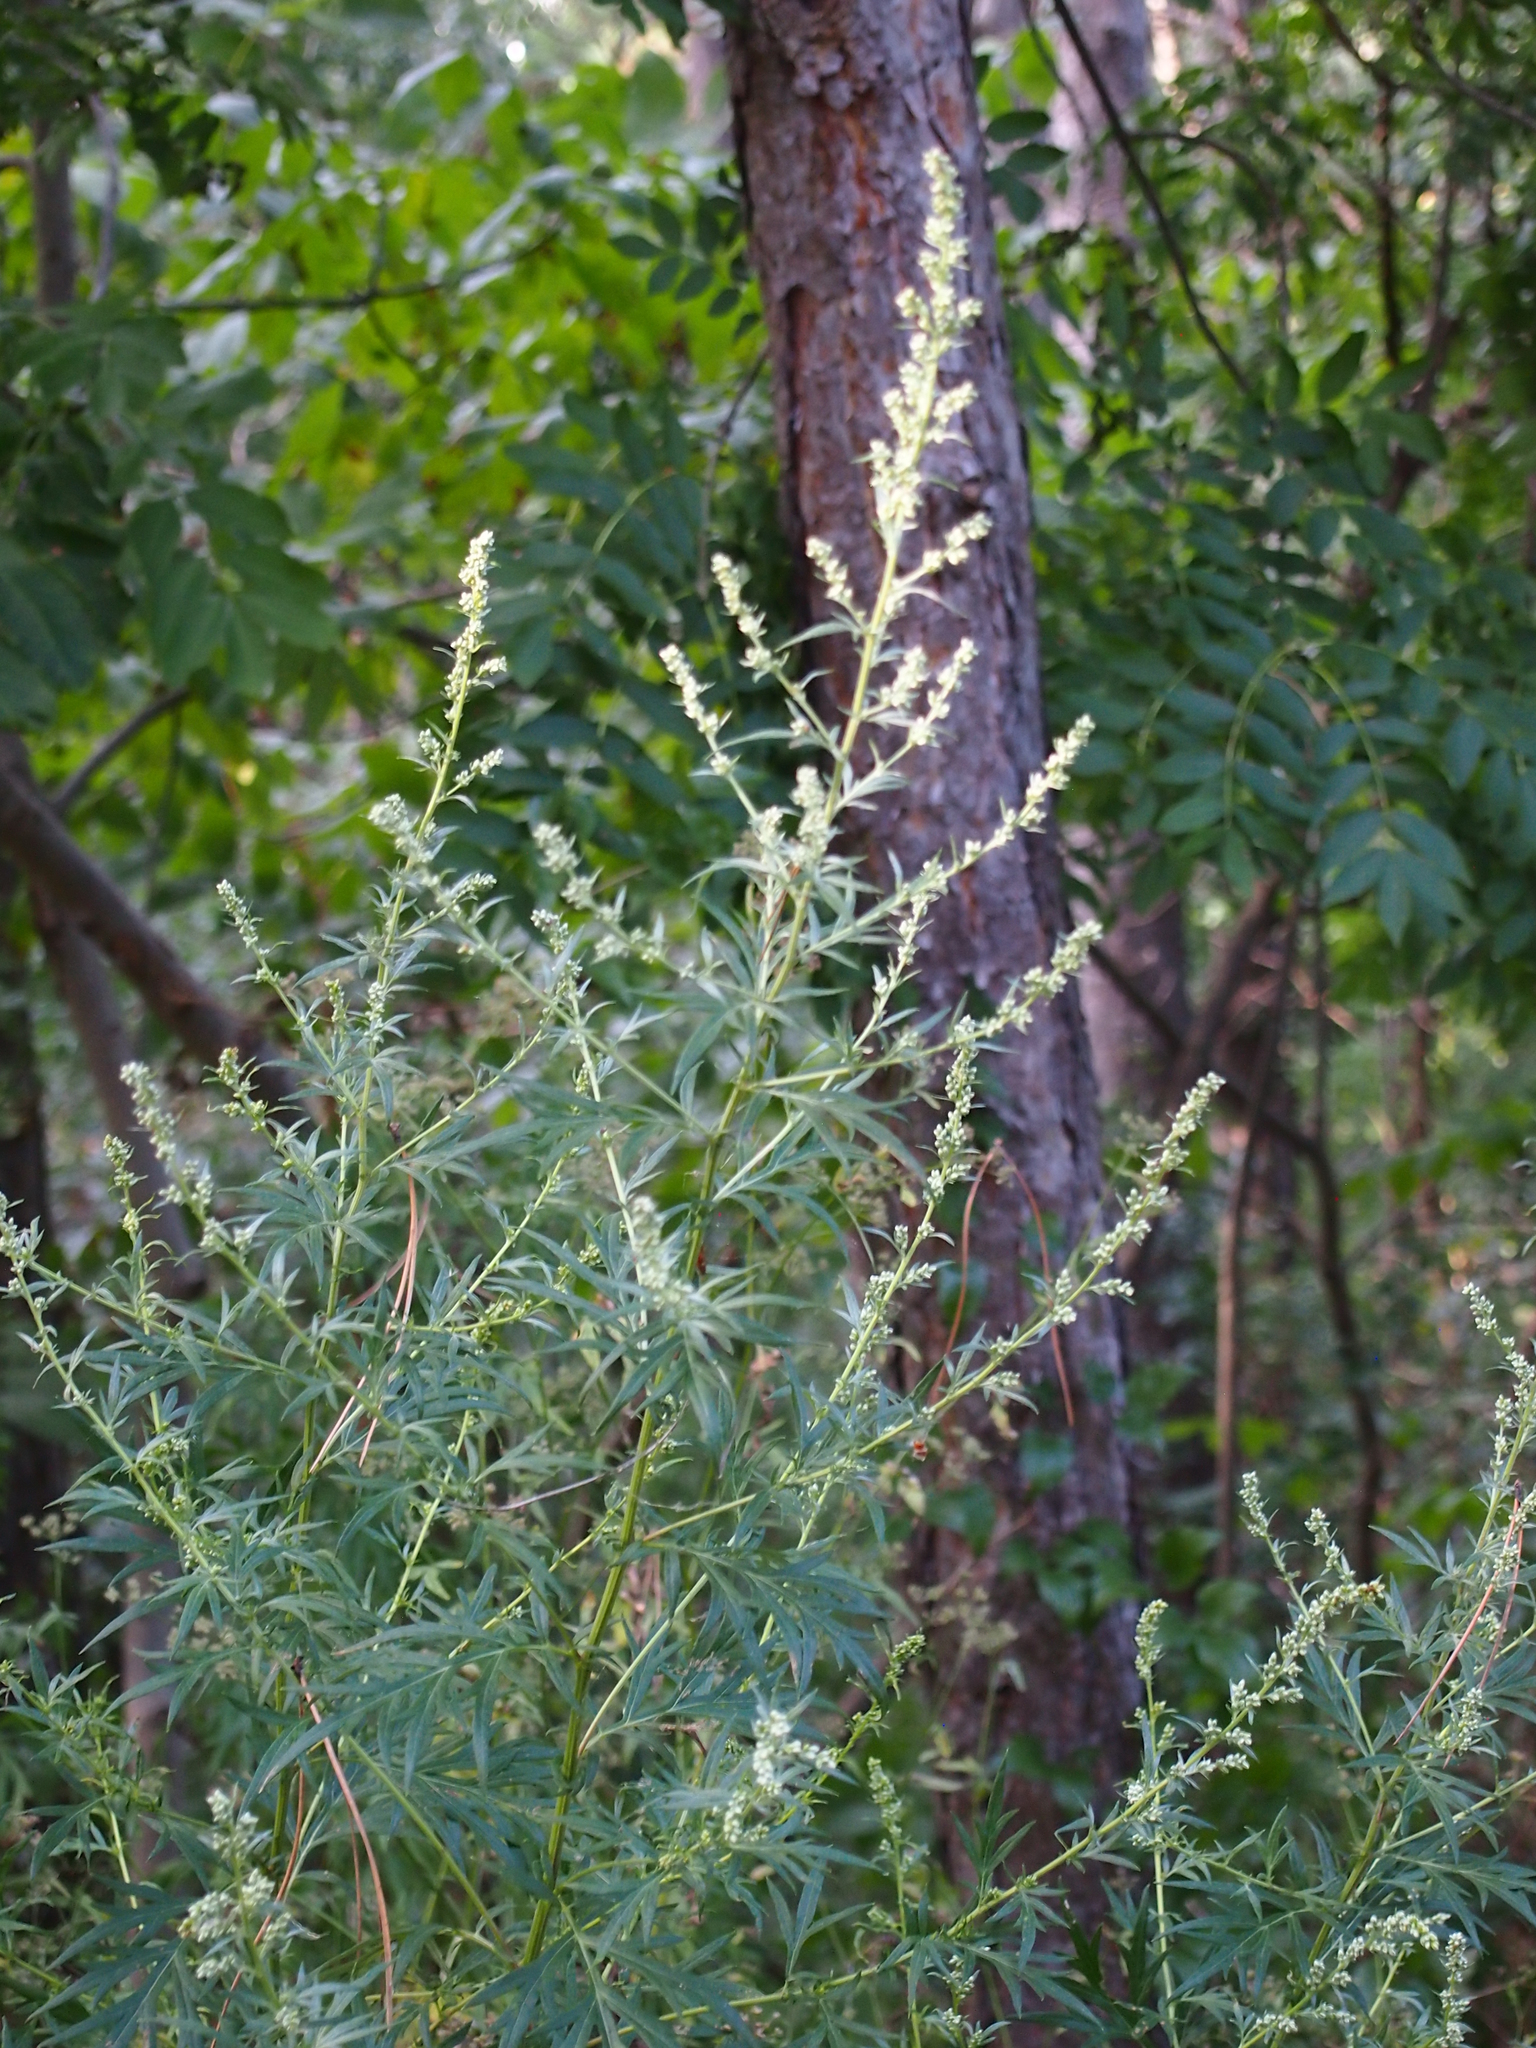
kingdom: Plantae
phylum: Tracheophyta
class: Magnoliopsida
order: Asterales
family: Asteraceae
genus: Artemisia
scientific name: Artemisia vulgaris
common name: Mugwort
